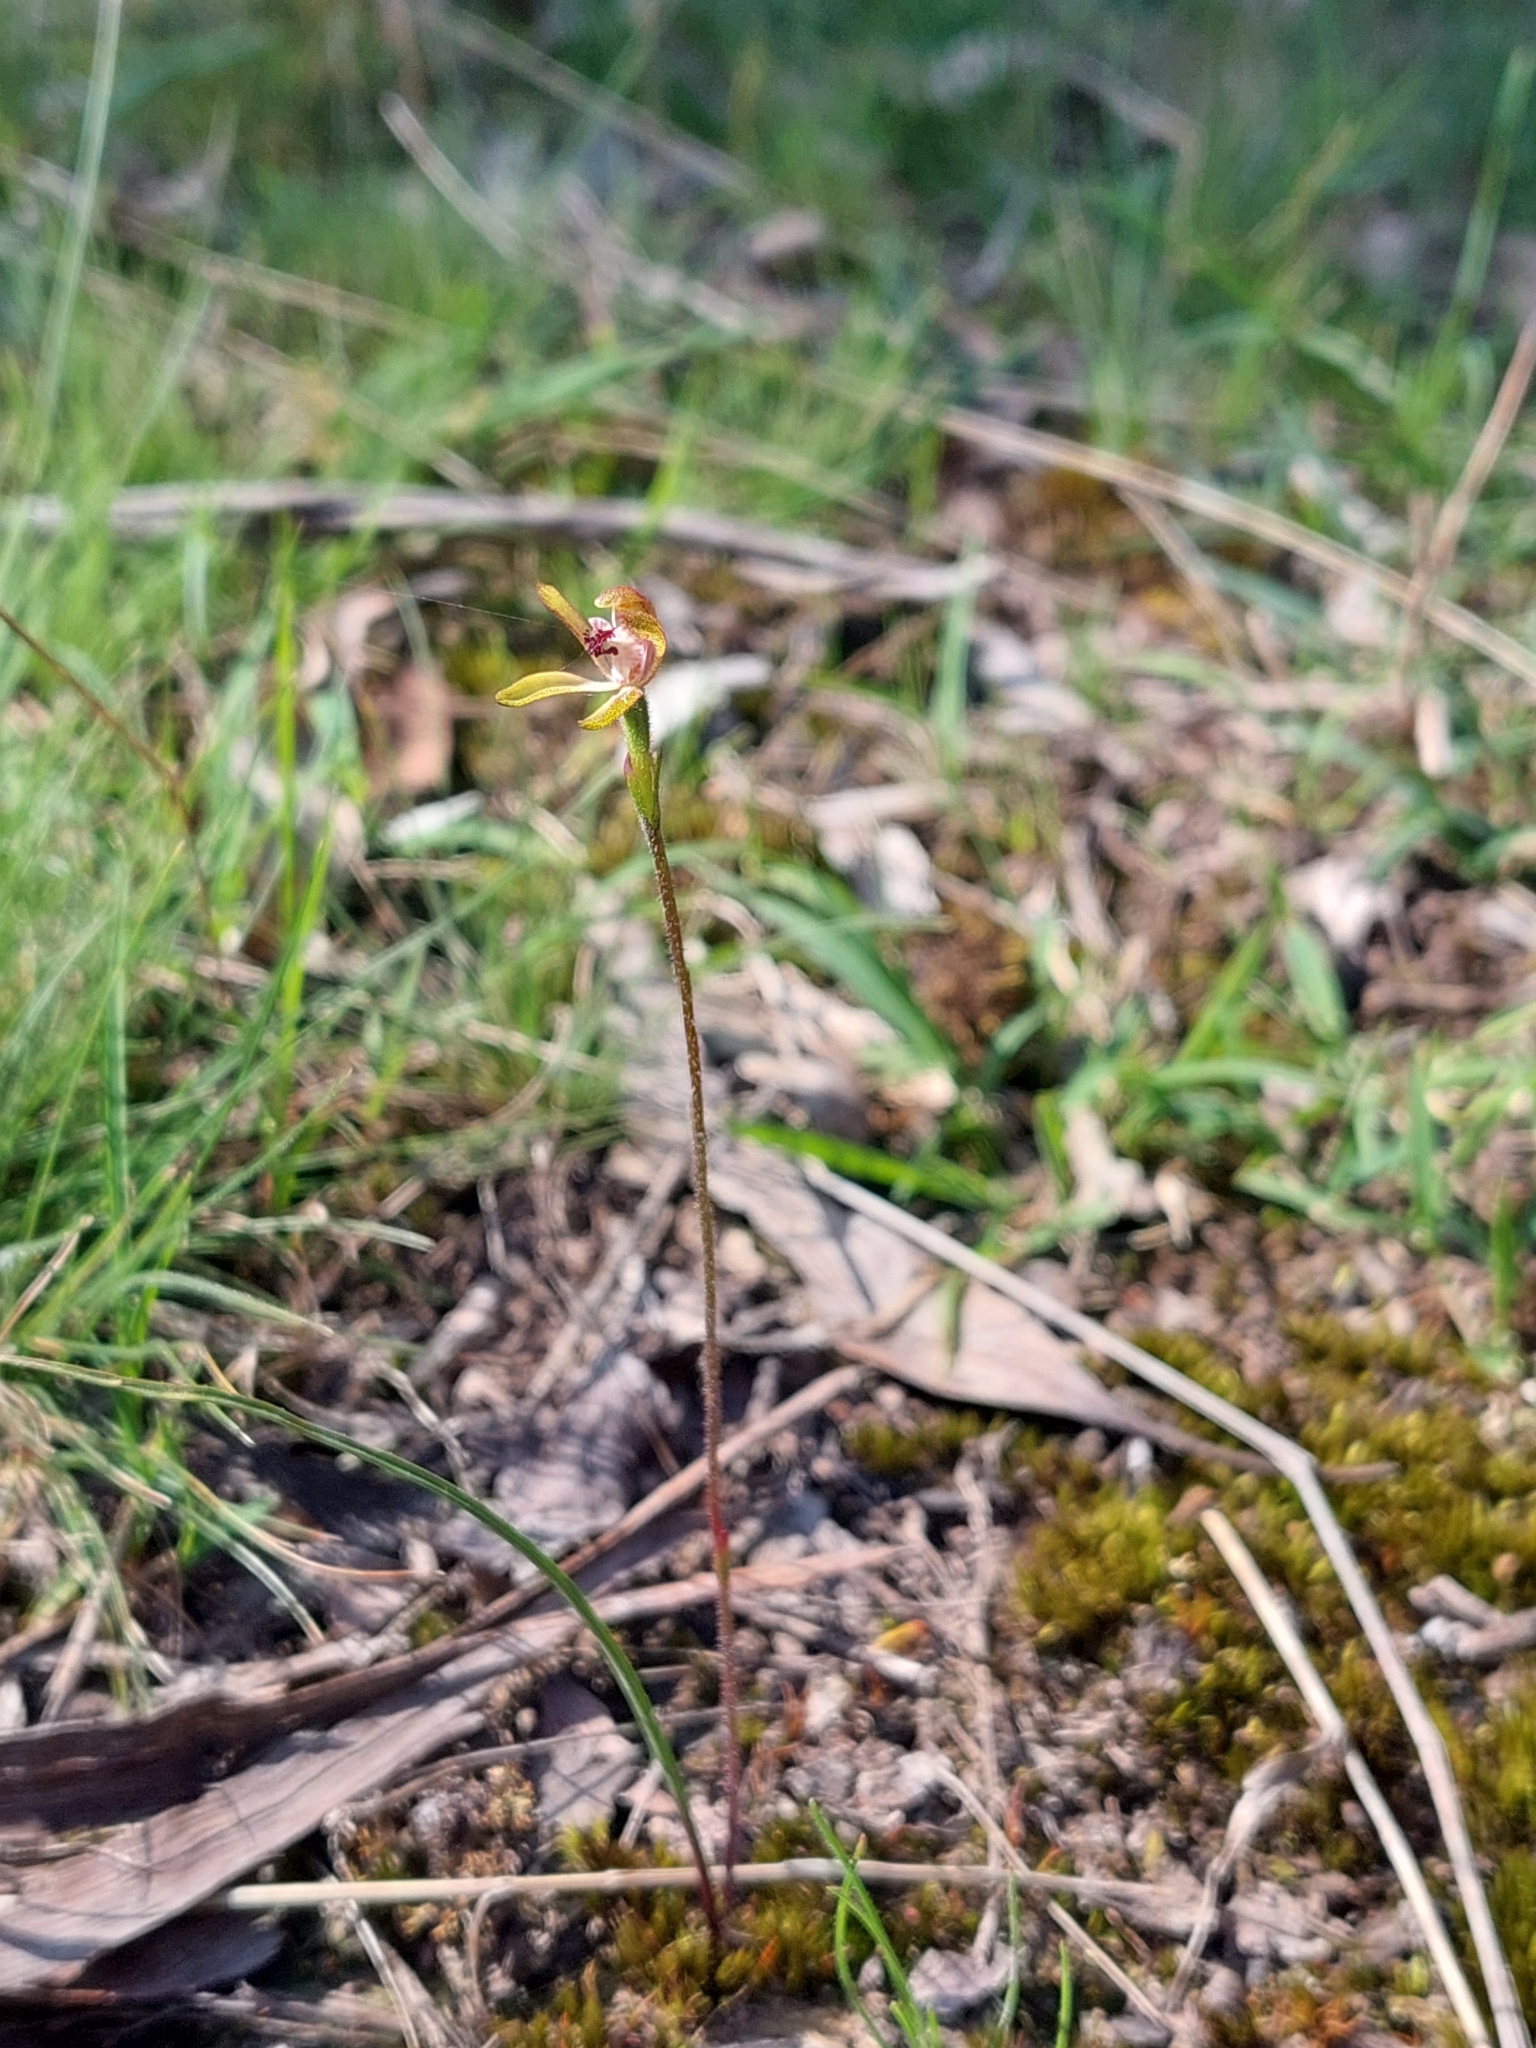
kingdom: Plantae
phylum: Tracheophyta
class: Liliopsida
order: Asparagales
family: Orchidaceae
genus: Caladenia
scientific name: Caladenia transitoria
